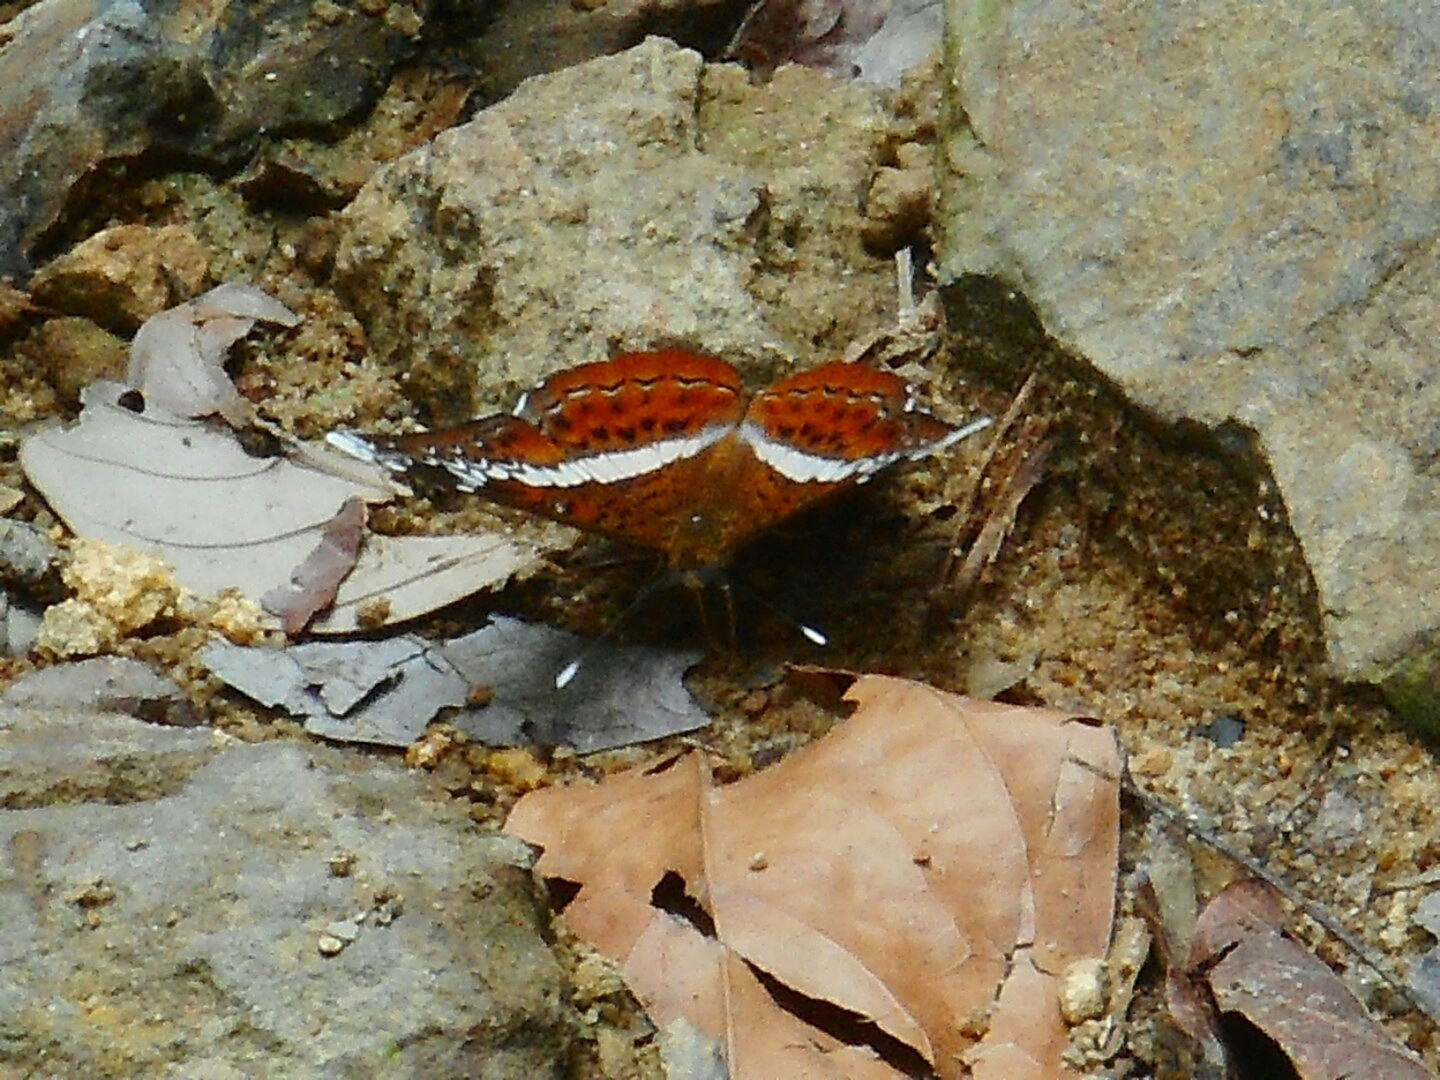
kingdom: Animalia
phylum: Arthropoda
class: Insecta
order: Lepidoptera
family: Nymphalidae
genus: Lebadea
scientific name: Lebadea martha
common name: Knight
